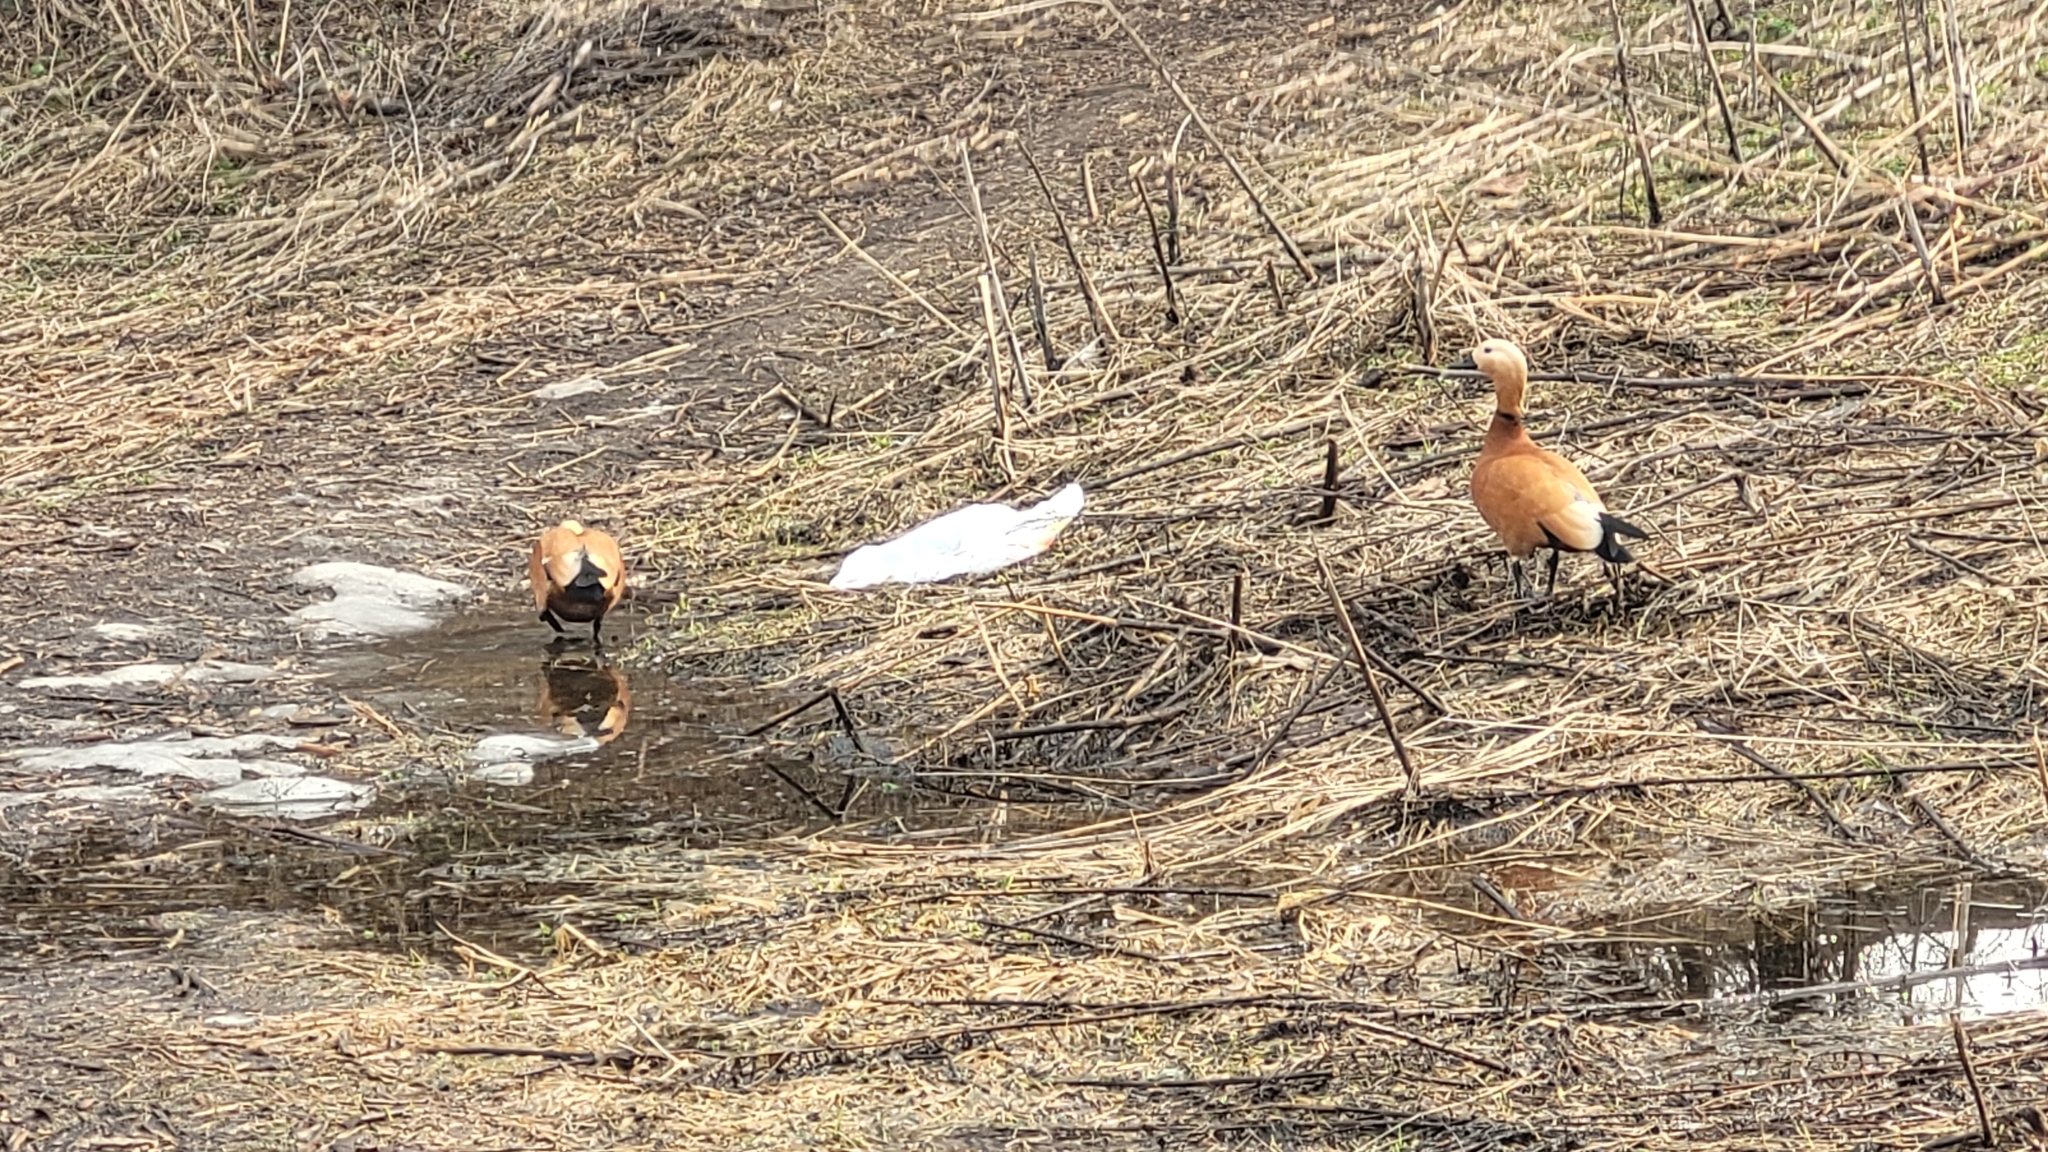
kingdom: Animalia
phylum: Chordata
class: Aves
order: Anseriformes
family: Anatidae
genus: Tadorna
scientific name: Tadorna ferruginea
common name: Ruddy shelduck
